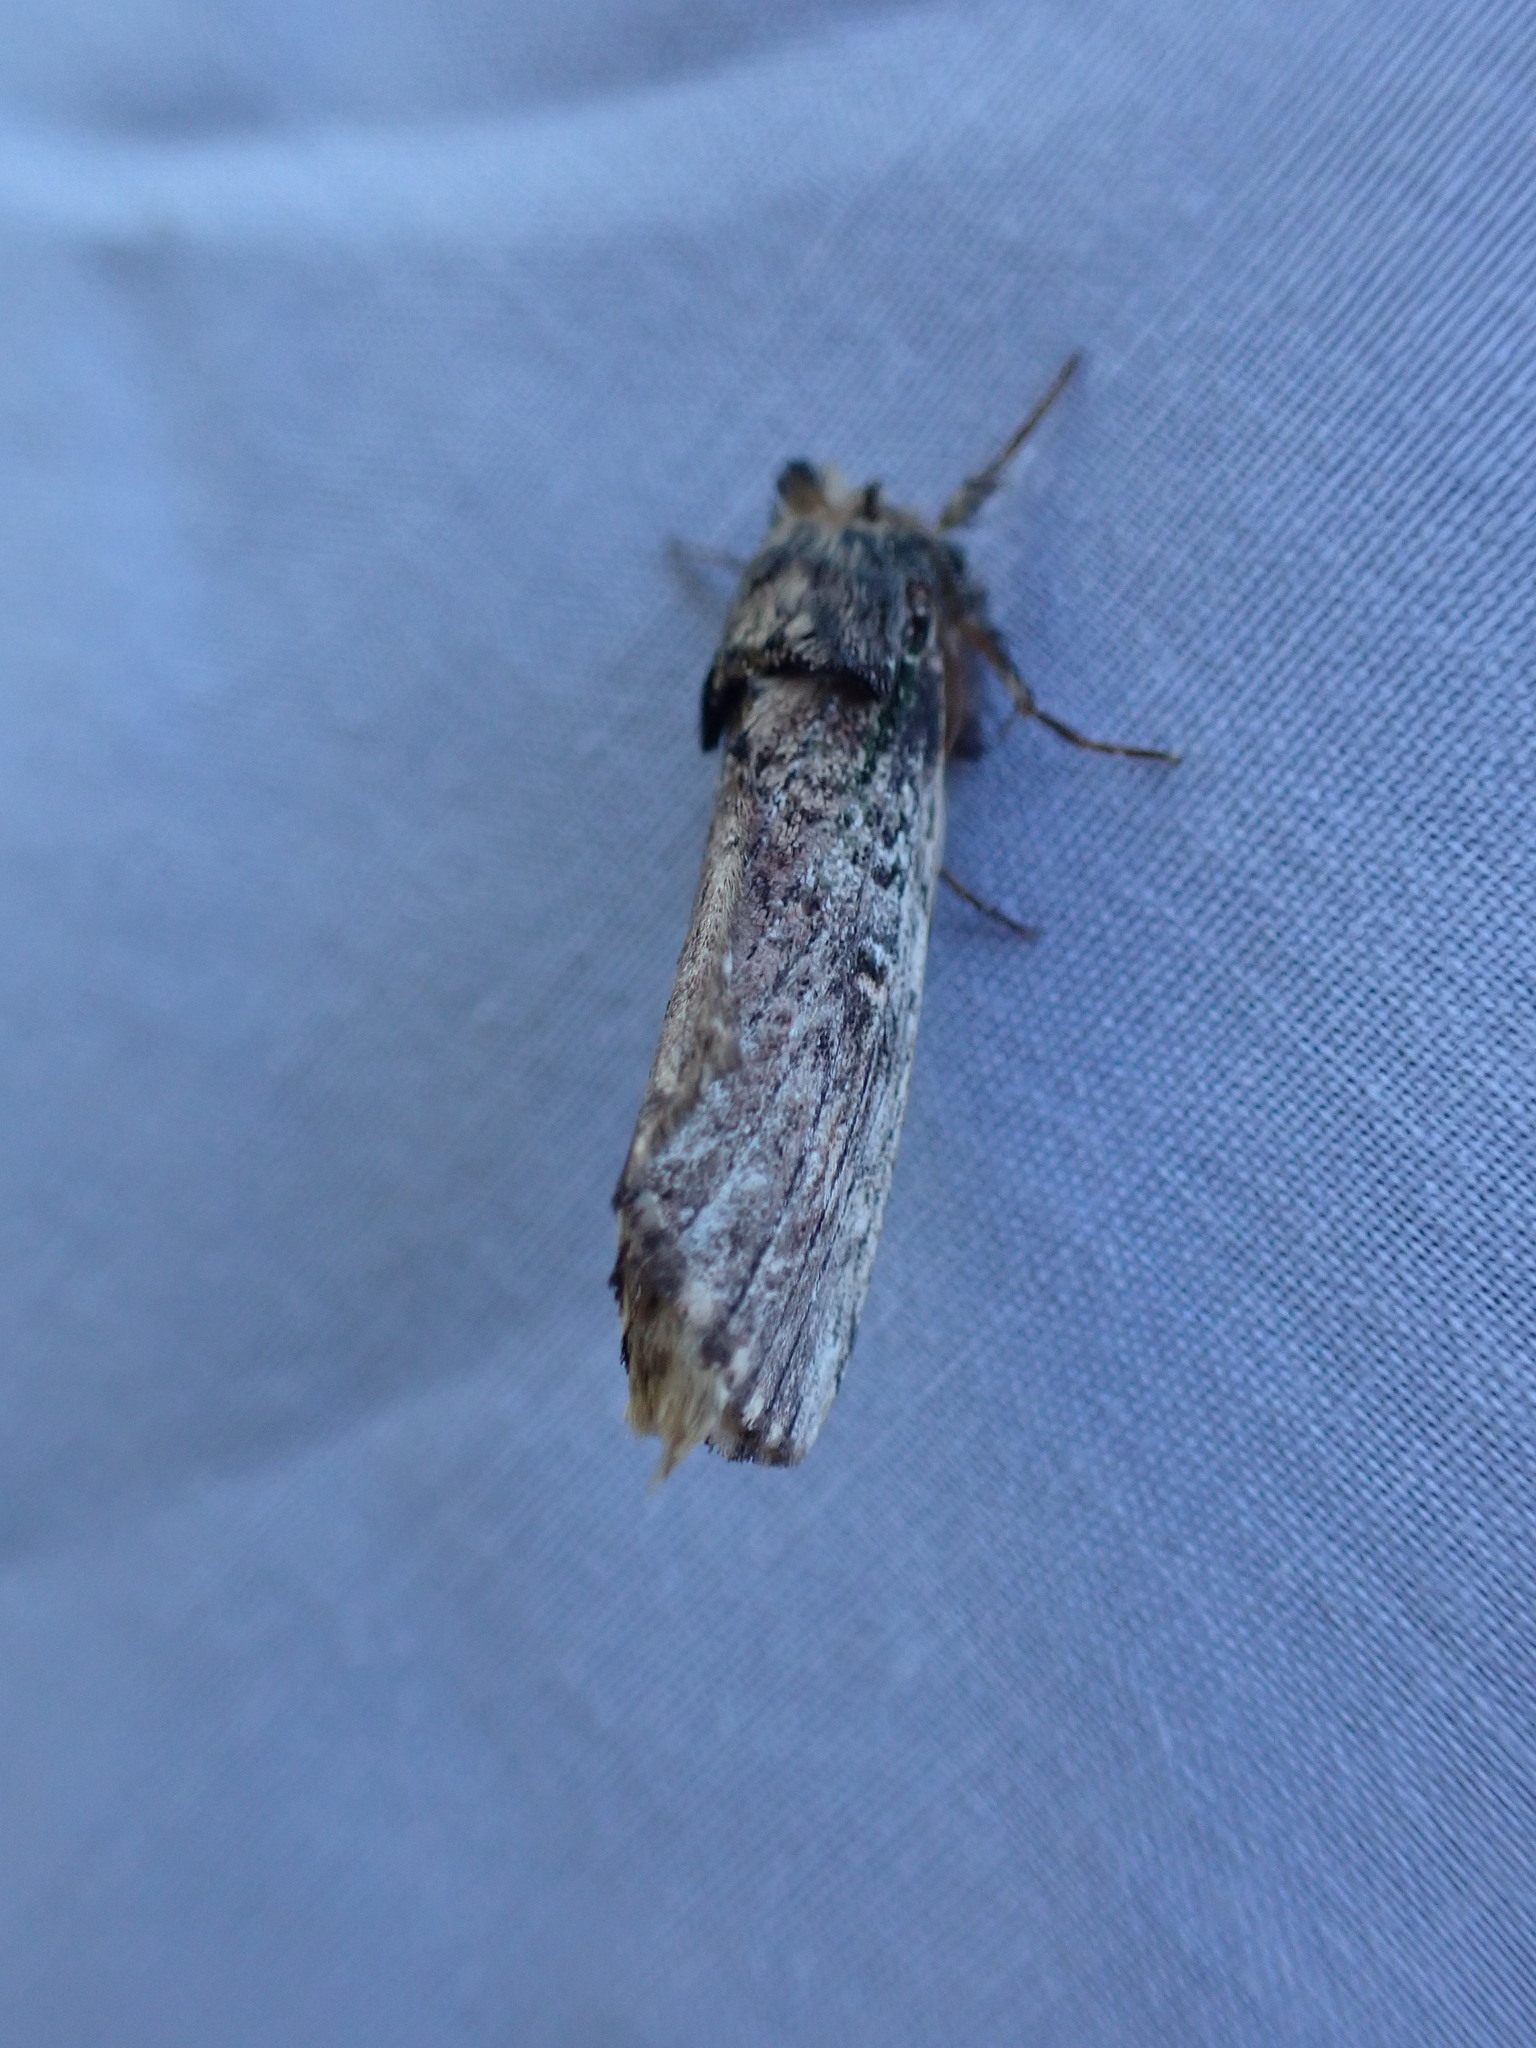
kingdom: Animalia
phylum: Arthropoda
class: Insecta
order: Lepidoptera
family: Notodontidae
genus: Schizura
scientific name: Schizura ipomaeae
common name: Morning-glory prominent
